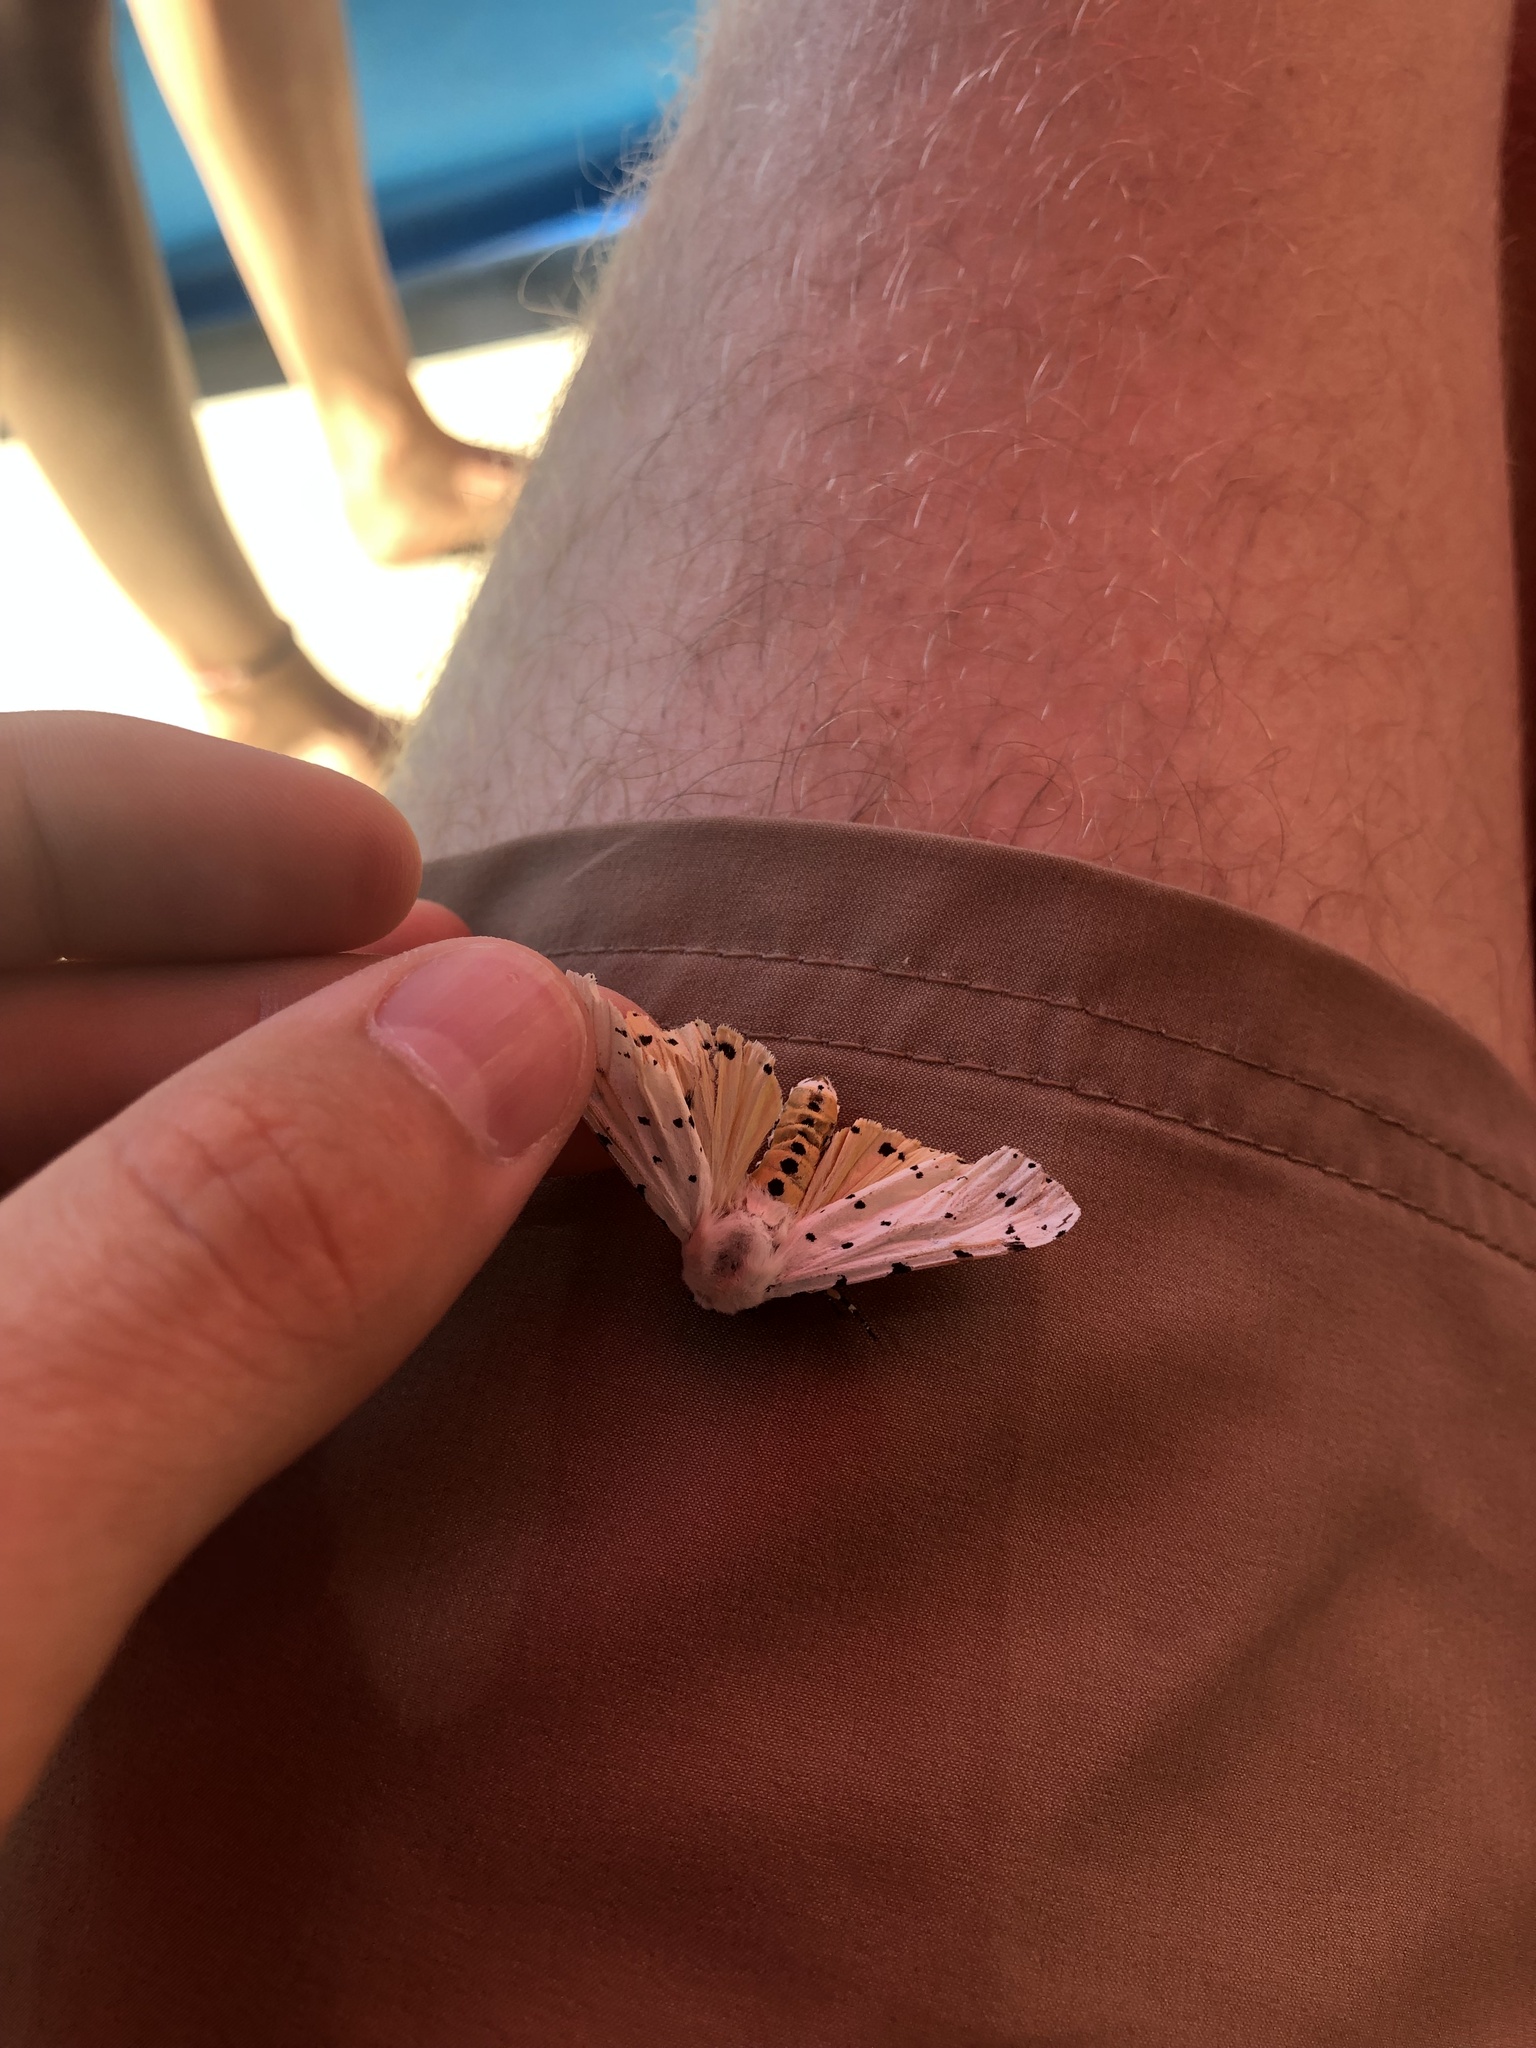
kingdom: Animalia
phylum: Arthropoda
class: Insecta
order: Lepidoptera
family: Erebidae
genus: Estigmene
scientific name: Estigmene acrea
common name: Salt marsh moth
